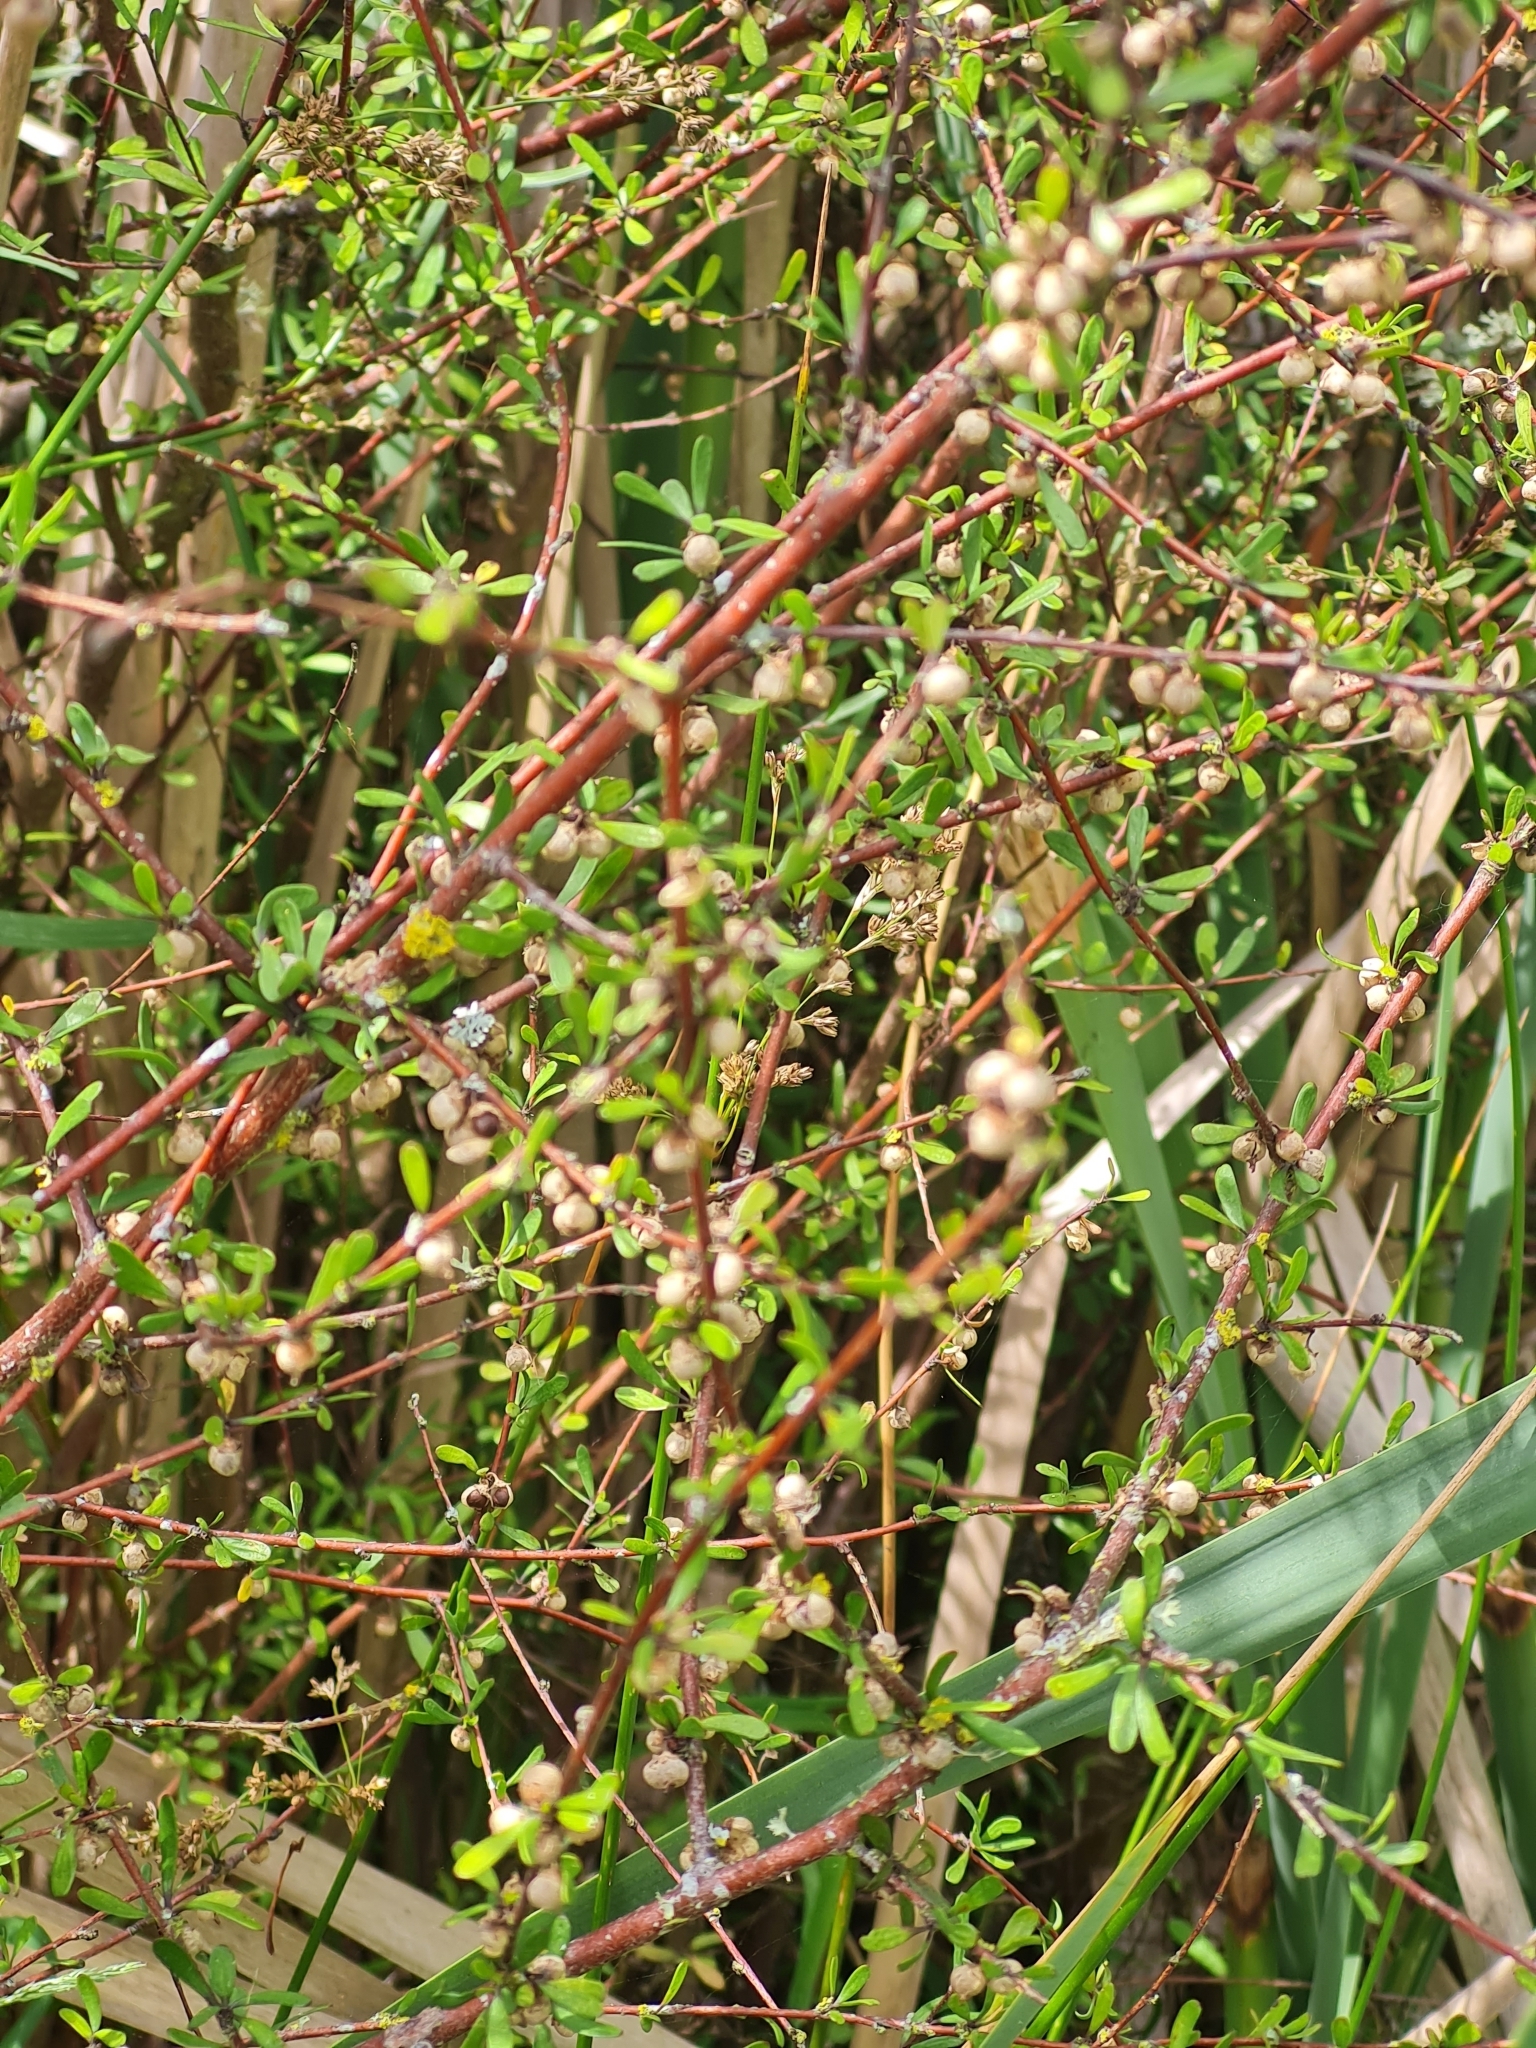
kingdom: Plantae
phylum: Tracheophyta
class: Magnoliopsida
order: Malvales
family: Malvaceae
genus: Plagianthus
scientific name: Plagianthus divaricatus
